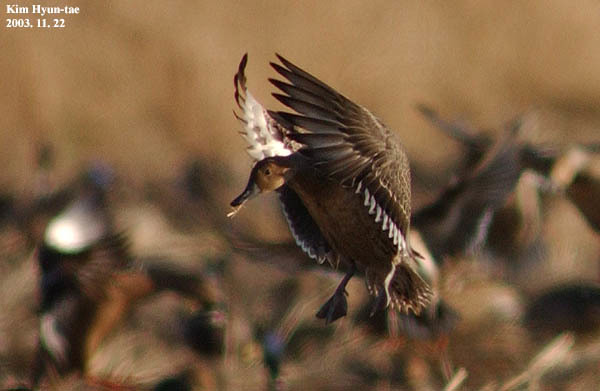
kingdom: Animalia
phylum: Chordata
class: Aves
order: Anseriformes
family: Anatidae
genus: Anas
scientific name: Anas acuta
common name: Northern pintail
